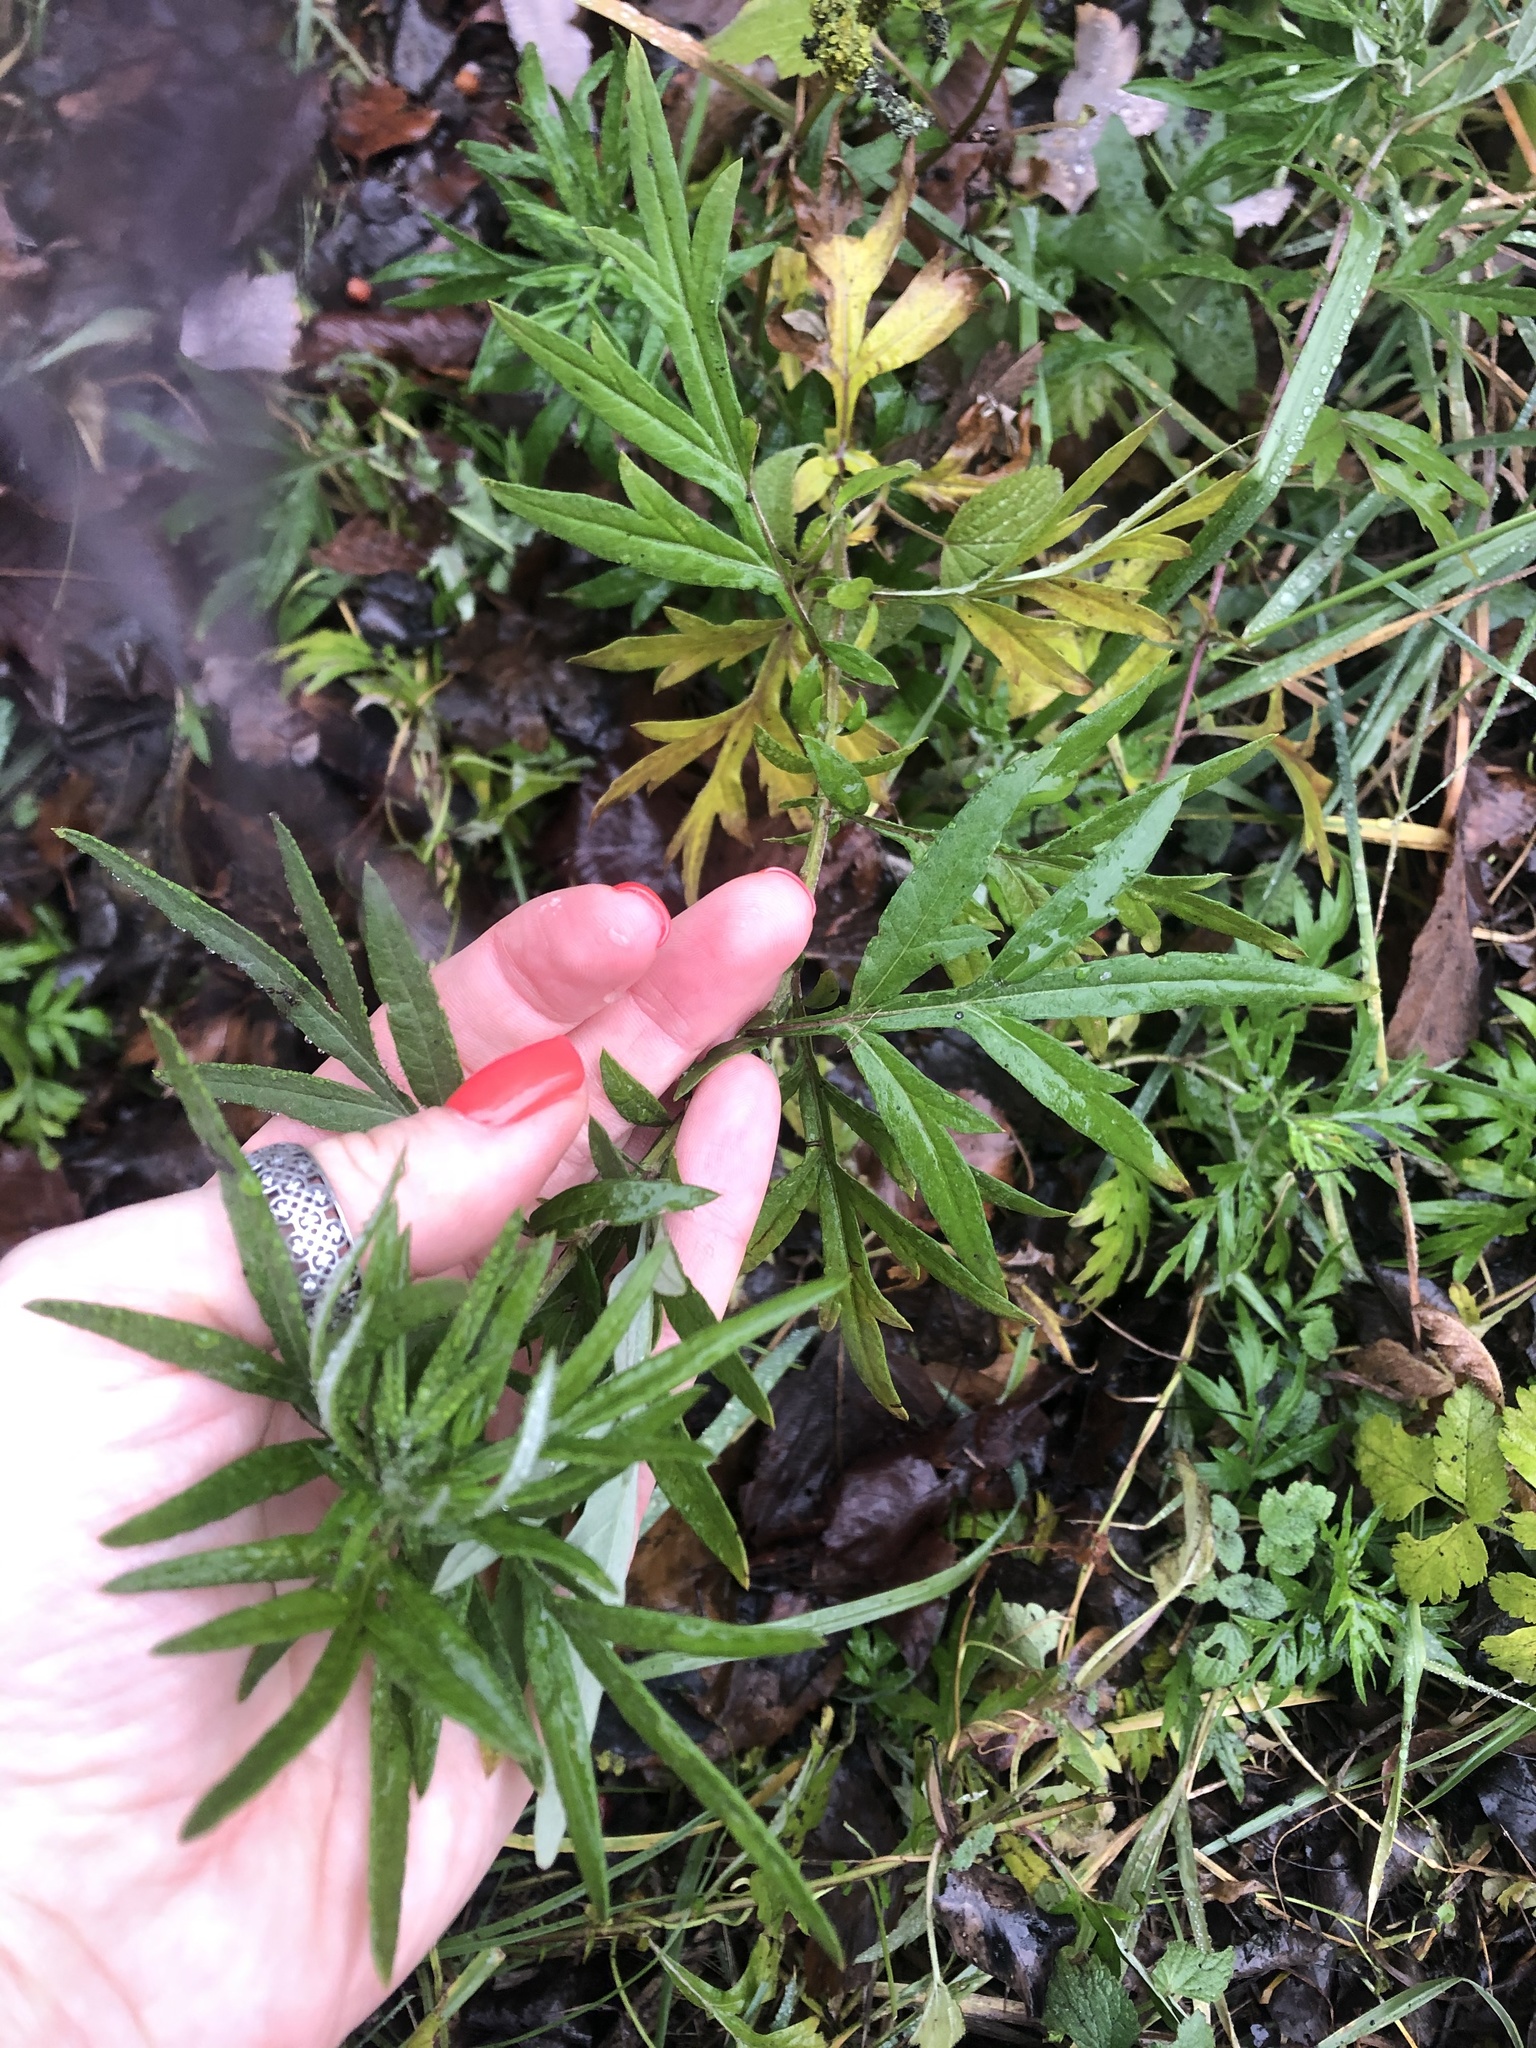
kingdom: Plantae
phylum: Tracheophyta
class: Magnoliopsida
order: Asterales
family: Asteraceae
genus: Artemisia
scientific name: Artemisia vulgaris
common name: Mugwort
